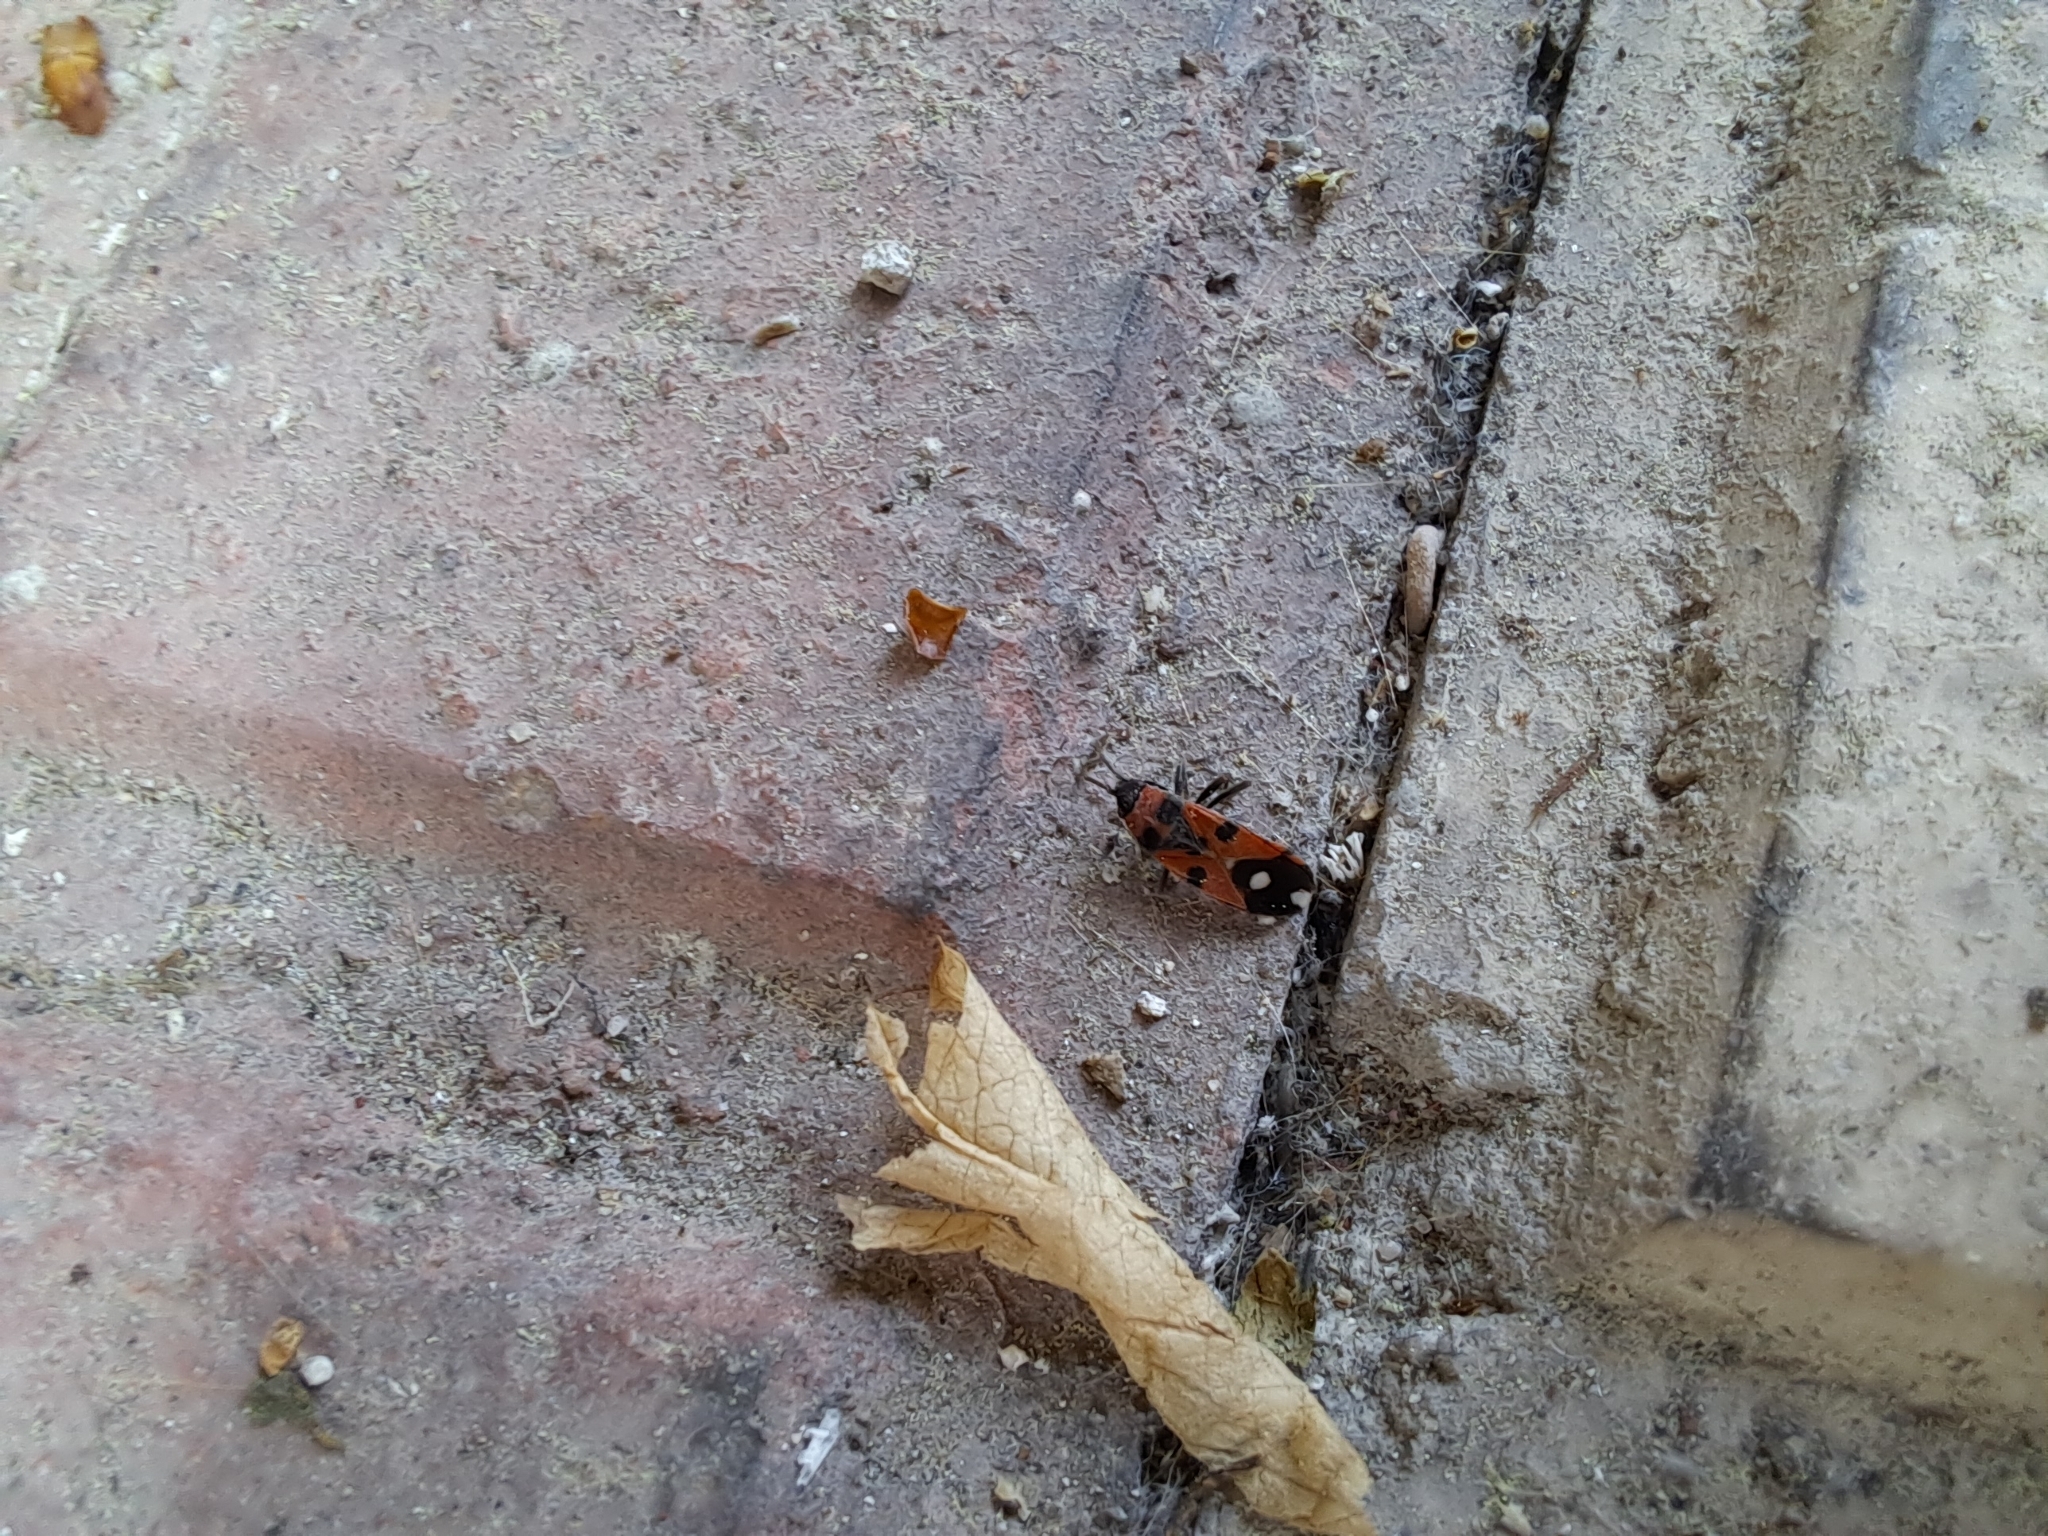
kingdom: Animalia
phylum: Arthropoda
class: Insecta
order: Hemiptera
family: Lygaeidae
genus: Horvathiolus
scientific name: Horvathiolus syriacus
